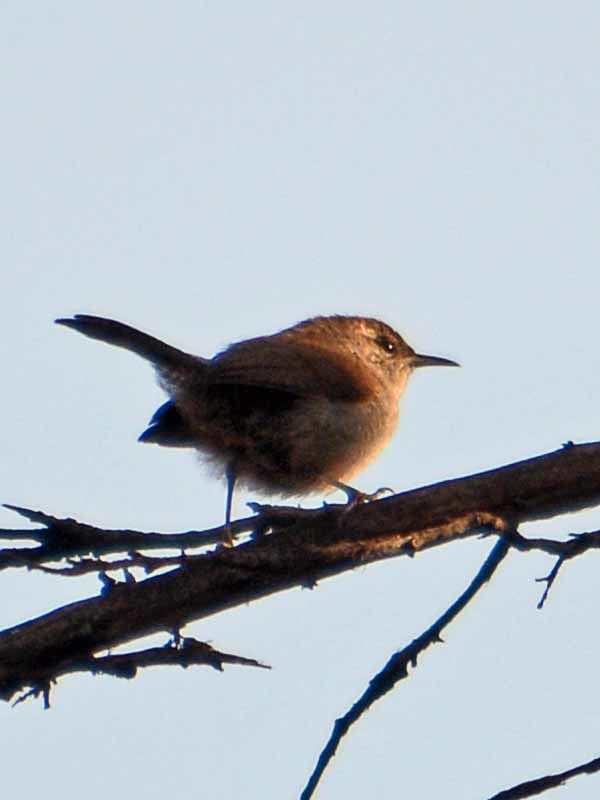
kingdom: Animalia
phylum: Chordata
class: Aves
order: Passeriformes
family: Troglodytidae
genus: Troglodytes
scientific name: Troglodytes aedon
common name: House wren
